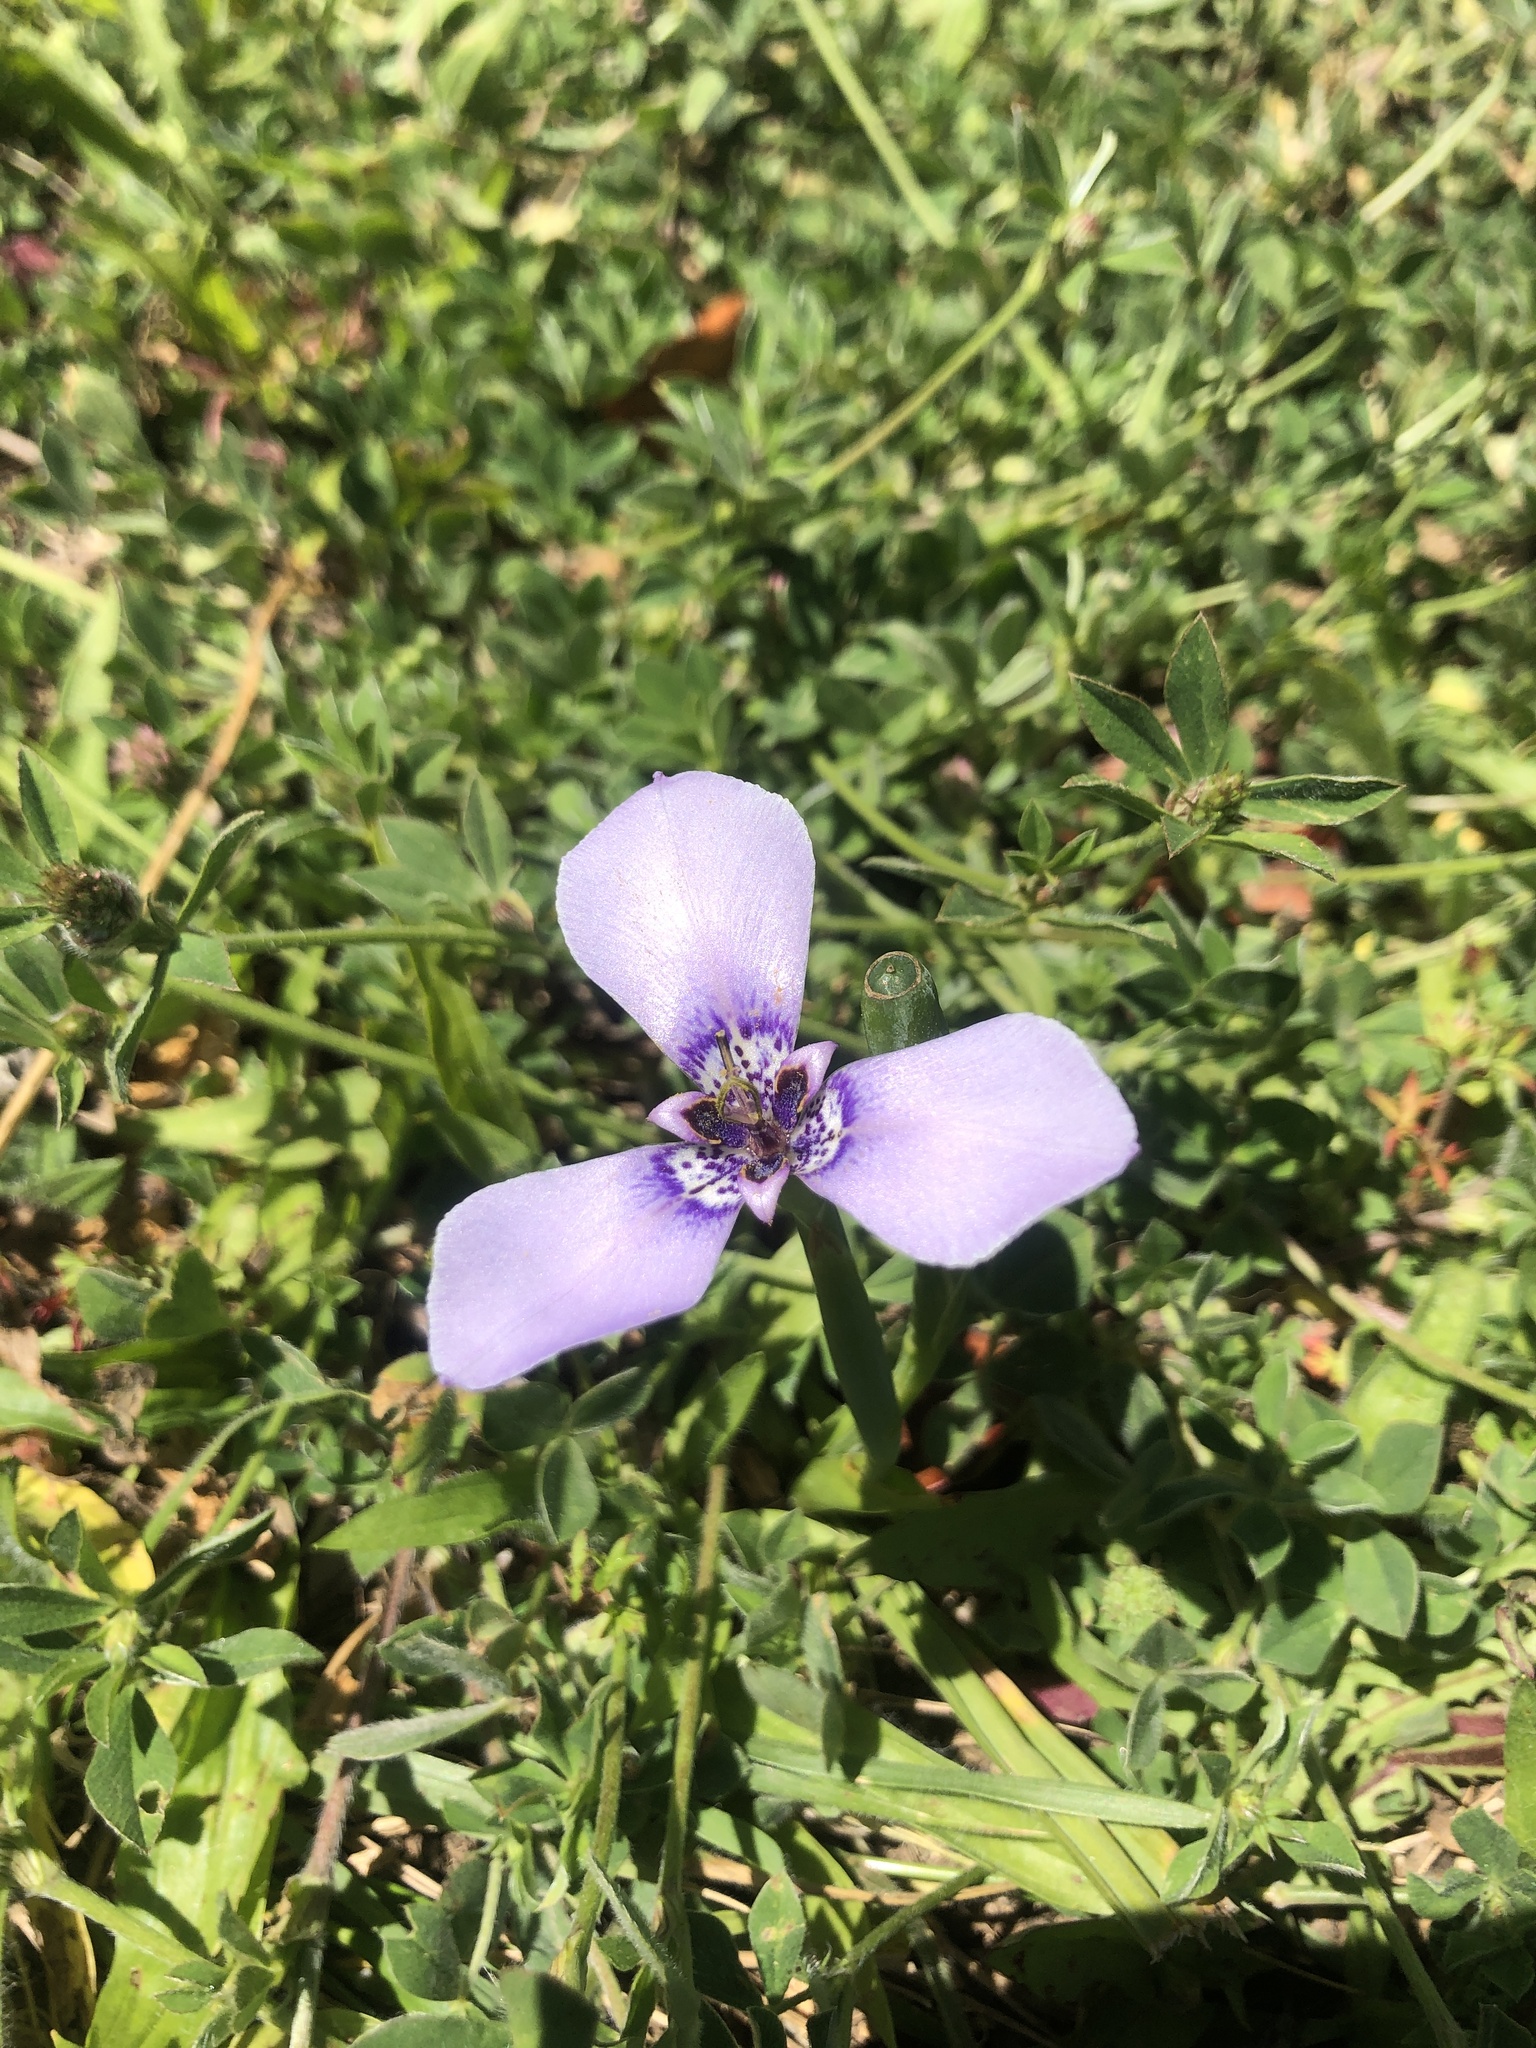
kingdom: Plantae
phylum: Tracheophyta
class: Liliopsida
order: Asparagales
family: Iridaceae
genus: Herbertia
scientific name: Herbertia lahue
